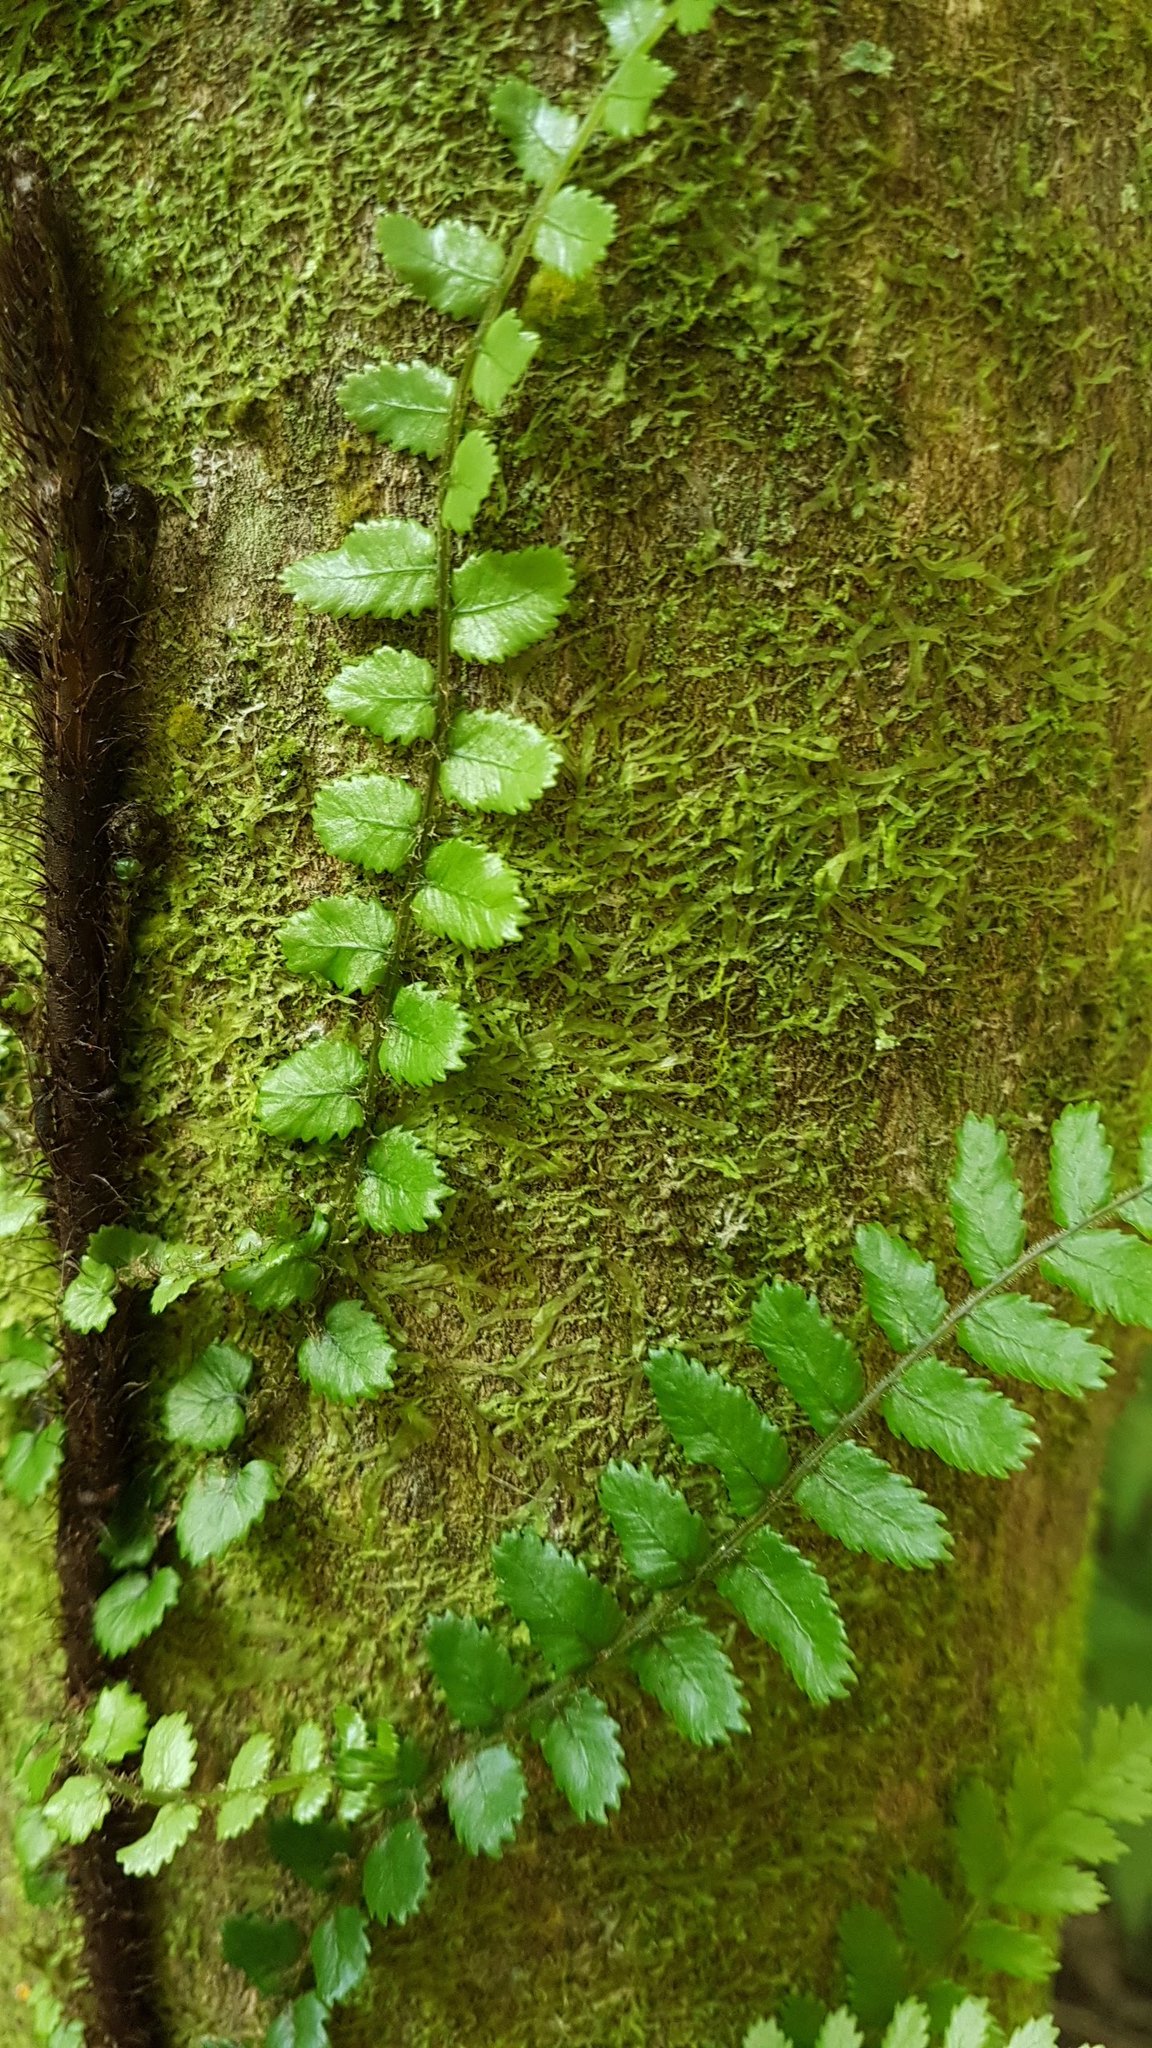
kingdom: Plantae
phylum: Tracheophyta
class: Polypodiopsida
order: Polypodiales
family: Blechnaceae
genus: Icarus
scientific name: Icarus filiformis
